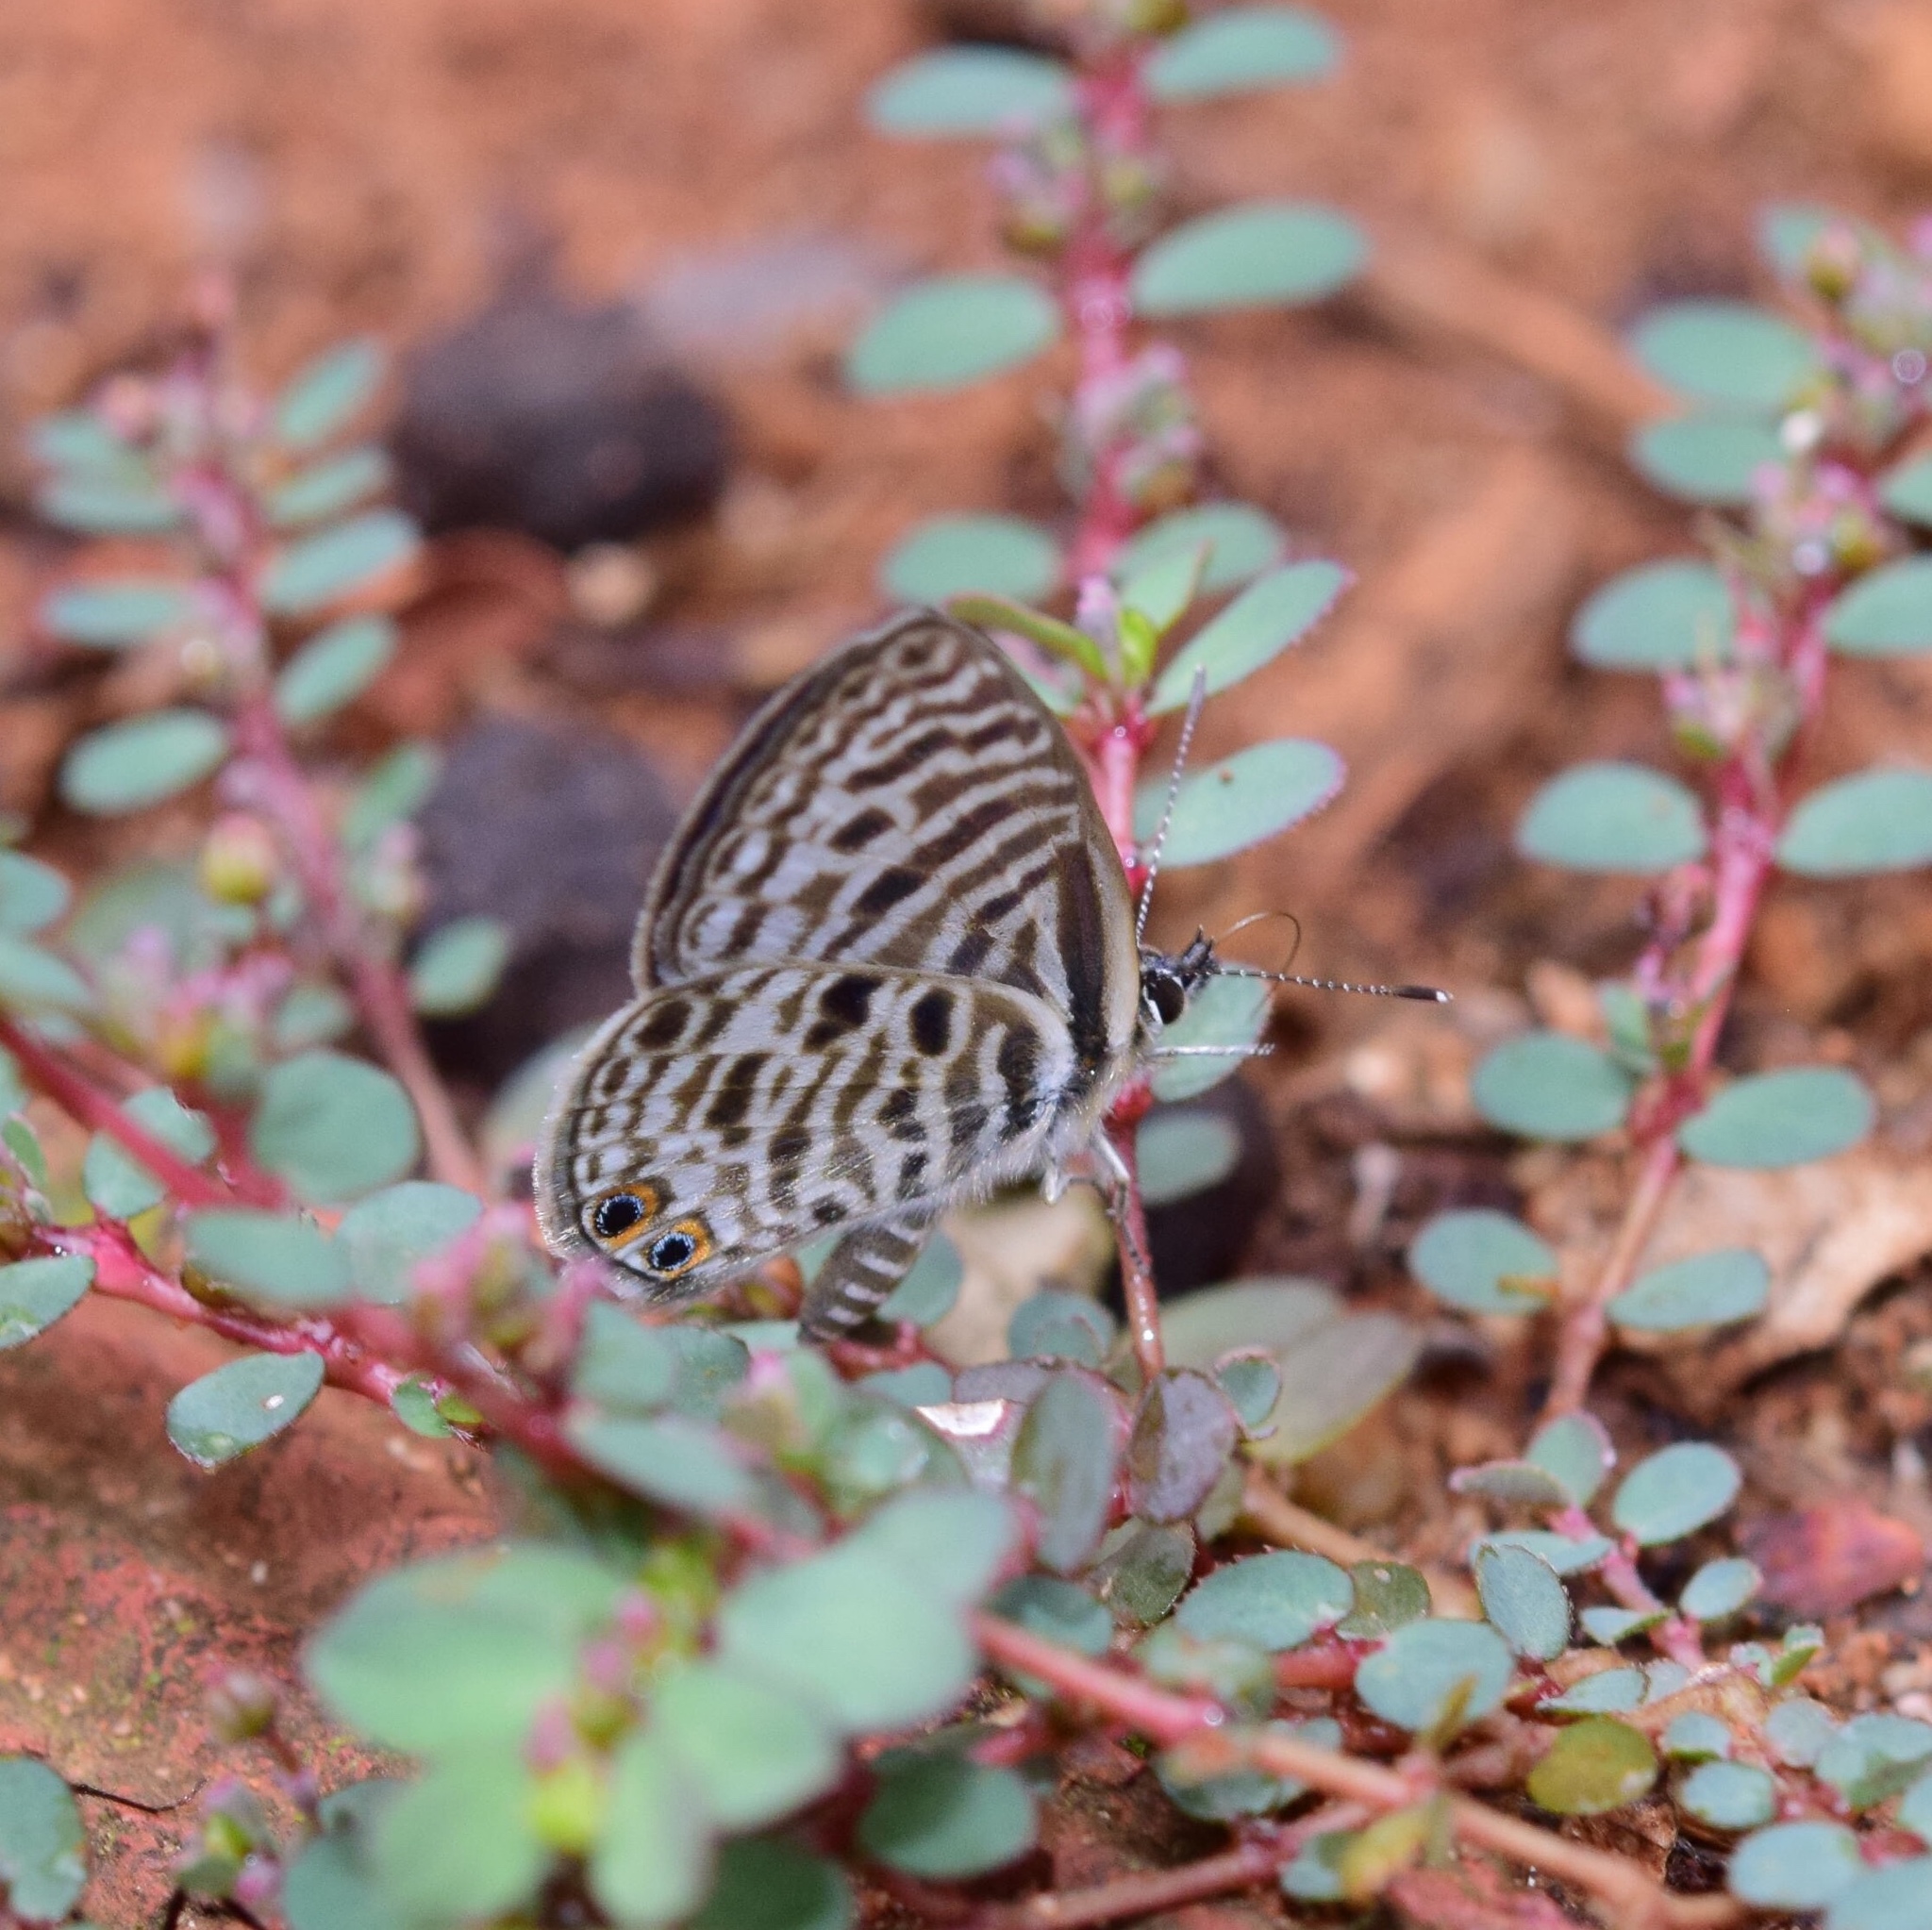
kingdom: Animalia
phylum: Arthropoda
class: Insecta
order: Lepidoptera
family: Lycaenidae
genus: Leptotes
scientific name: Leptotes
